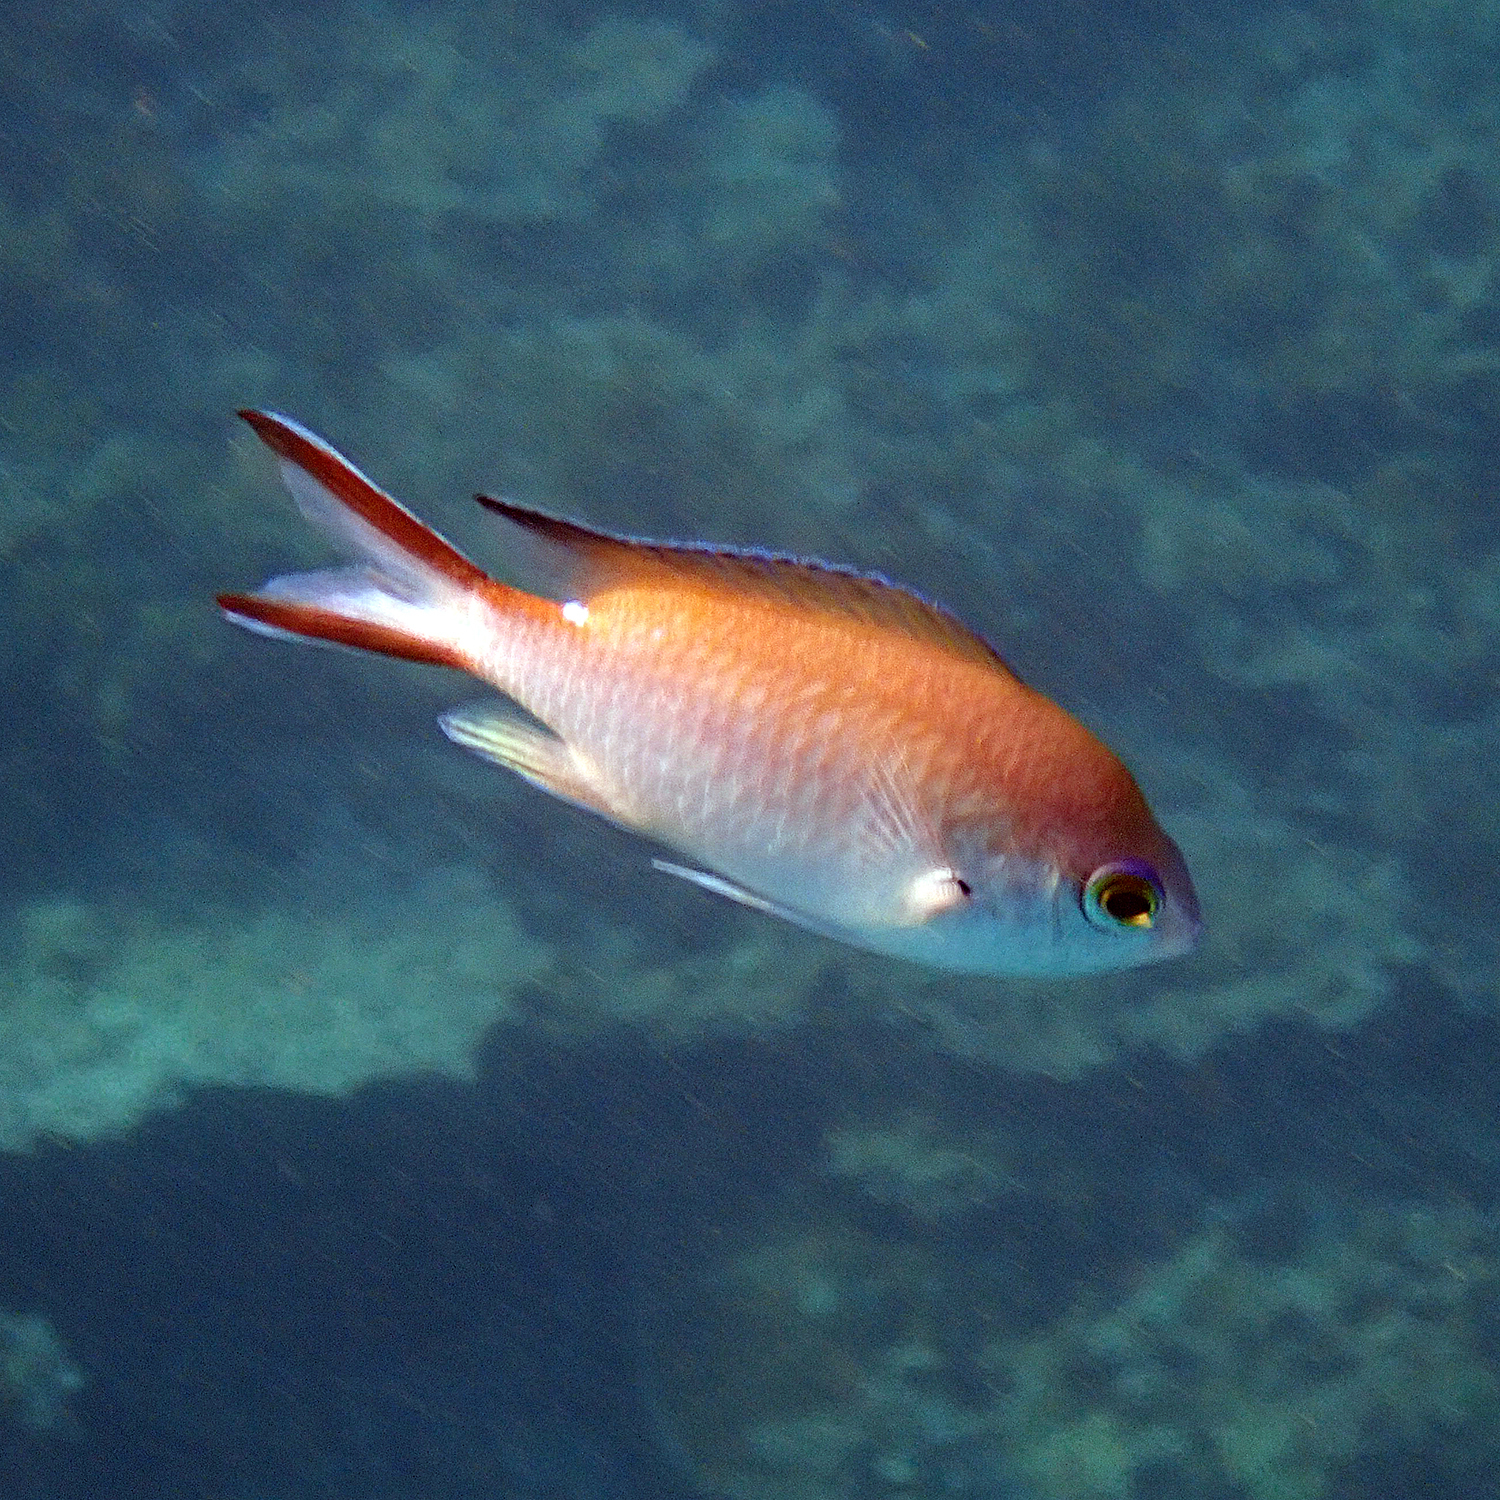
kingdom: Animalia
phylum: Chordata
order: Perciformes
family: Pomacentridae
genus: Chromis
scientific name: Chromis norfolkensis
